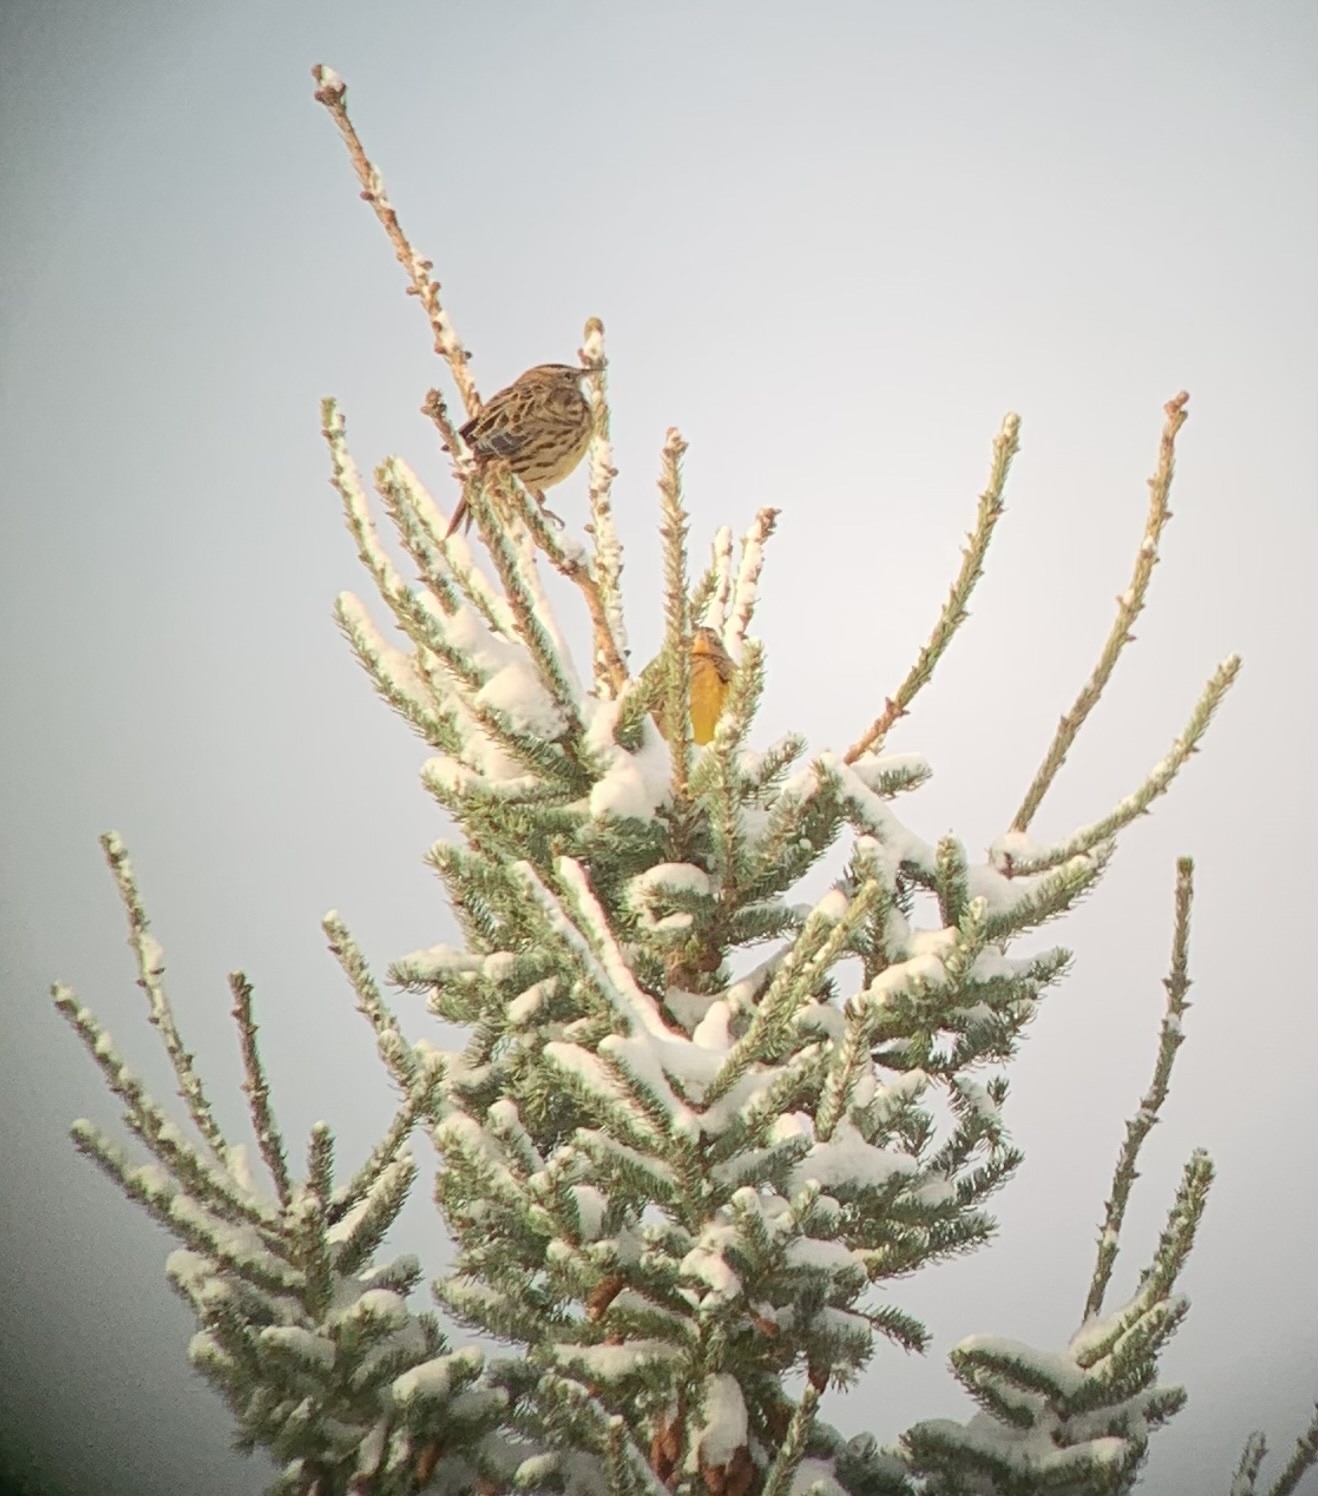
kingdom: Animalia
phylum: Chordata
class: Aves
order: Passeriformes
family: Icteridae
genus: Sturnella
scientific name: Sturnella magna
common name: Eastern meadowlark
